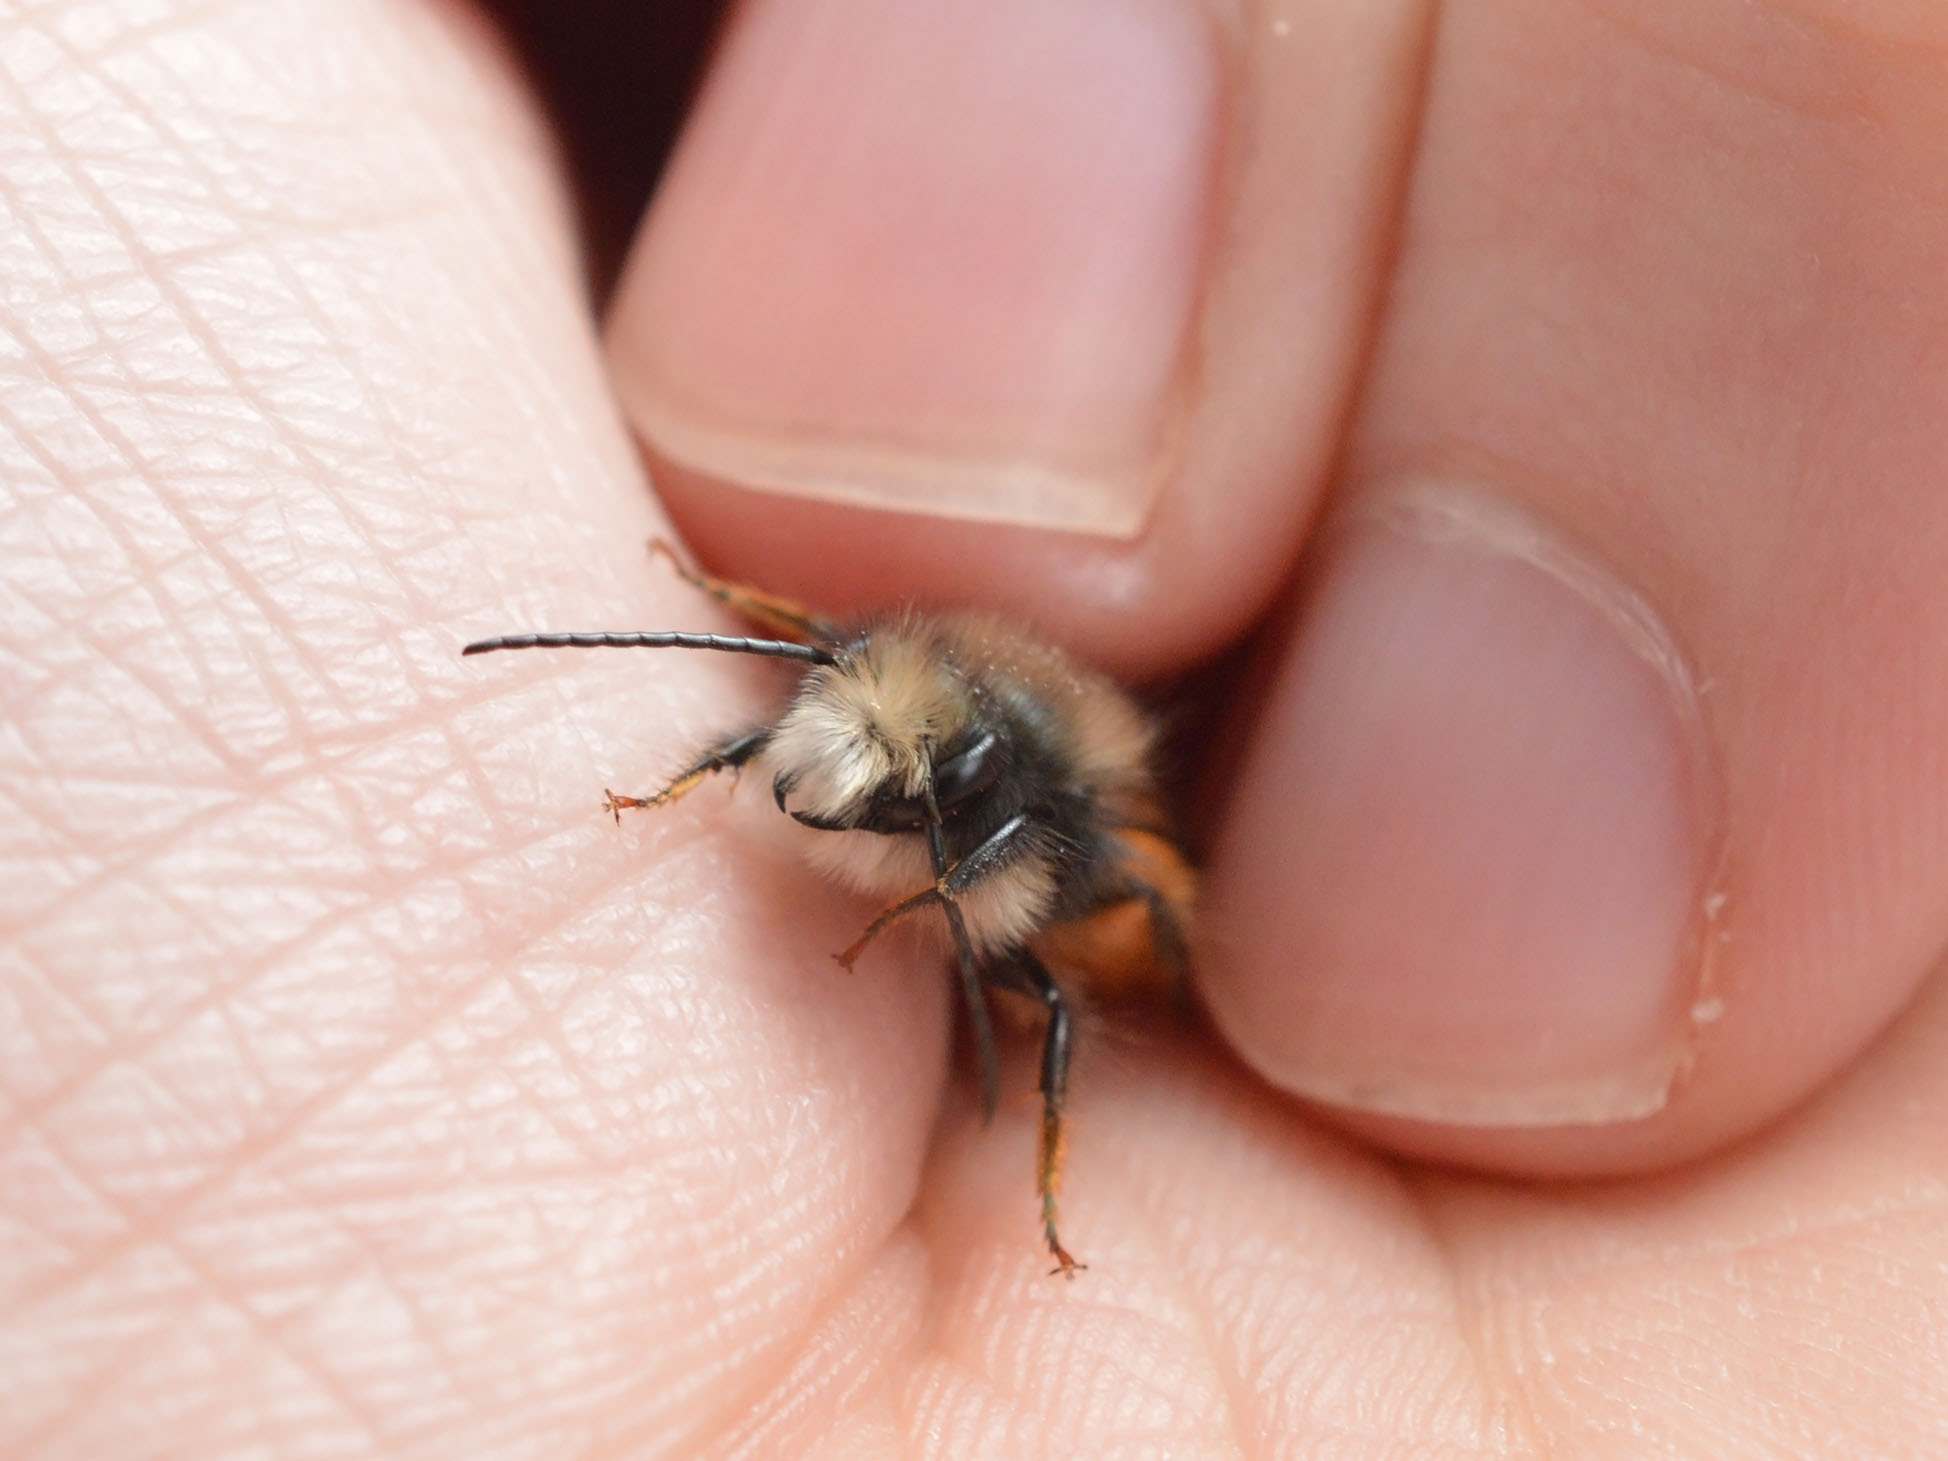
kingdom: Animalia
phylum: Arthropoda
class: Insecta
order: Hymenoptera
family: Megachilidae
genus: Osmia
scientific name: Osmia cornuta
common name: Mason bee
